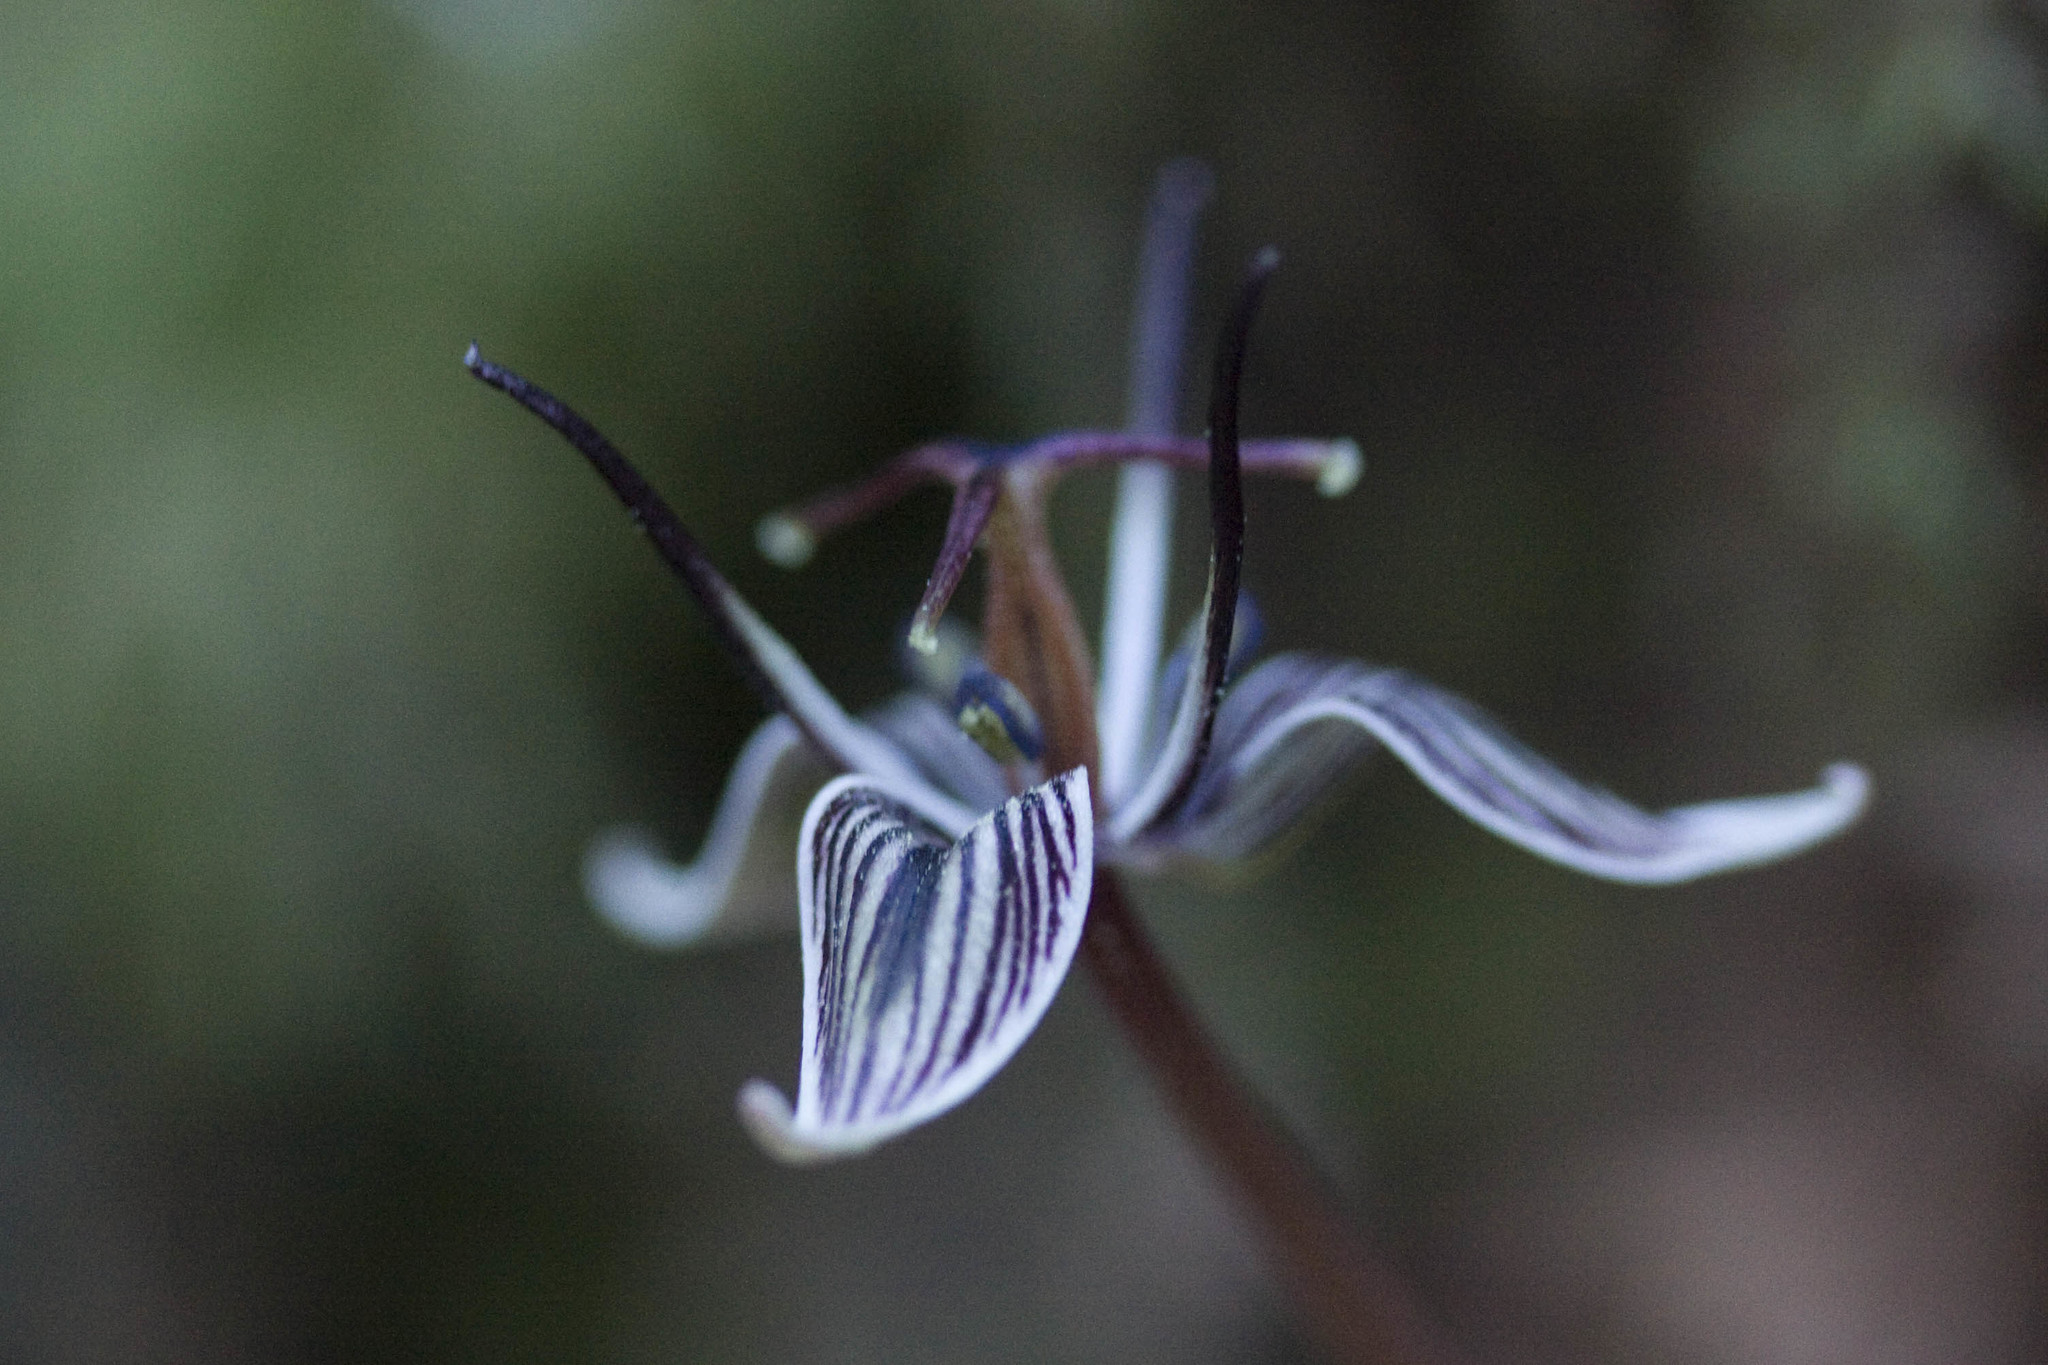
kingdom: Plantae
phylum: Tracheophyta
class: Liliopsida
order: Liliales
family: Liliaceae
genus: Scoliopus
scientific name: Scoliopus bigelovii
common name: Foetid adder's-tongue
